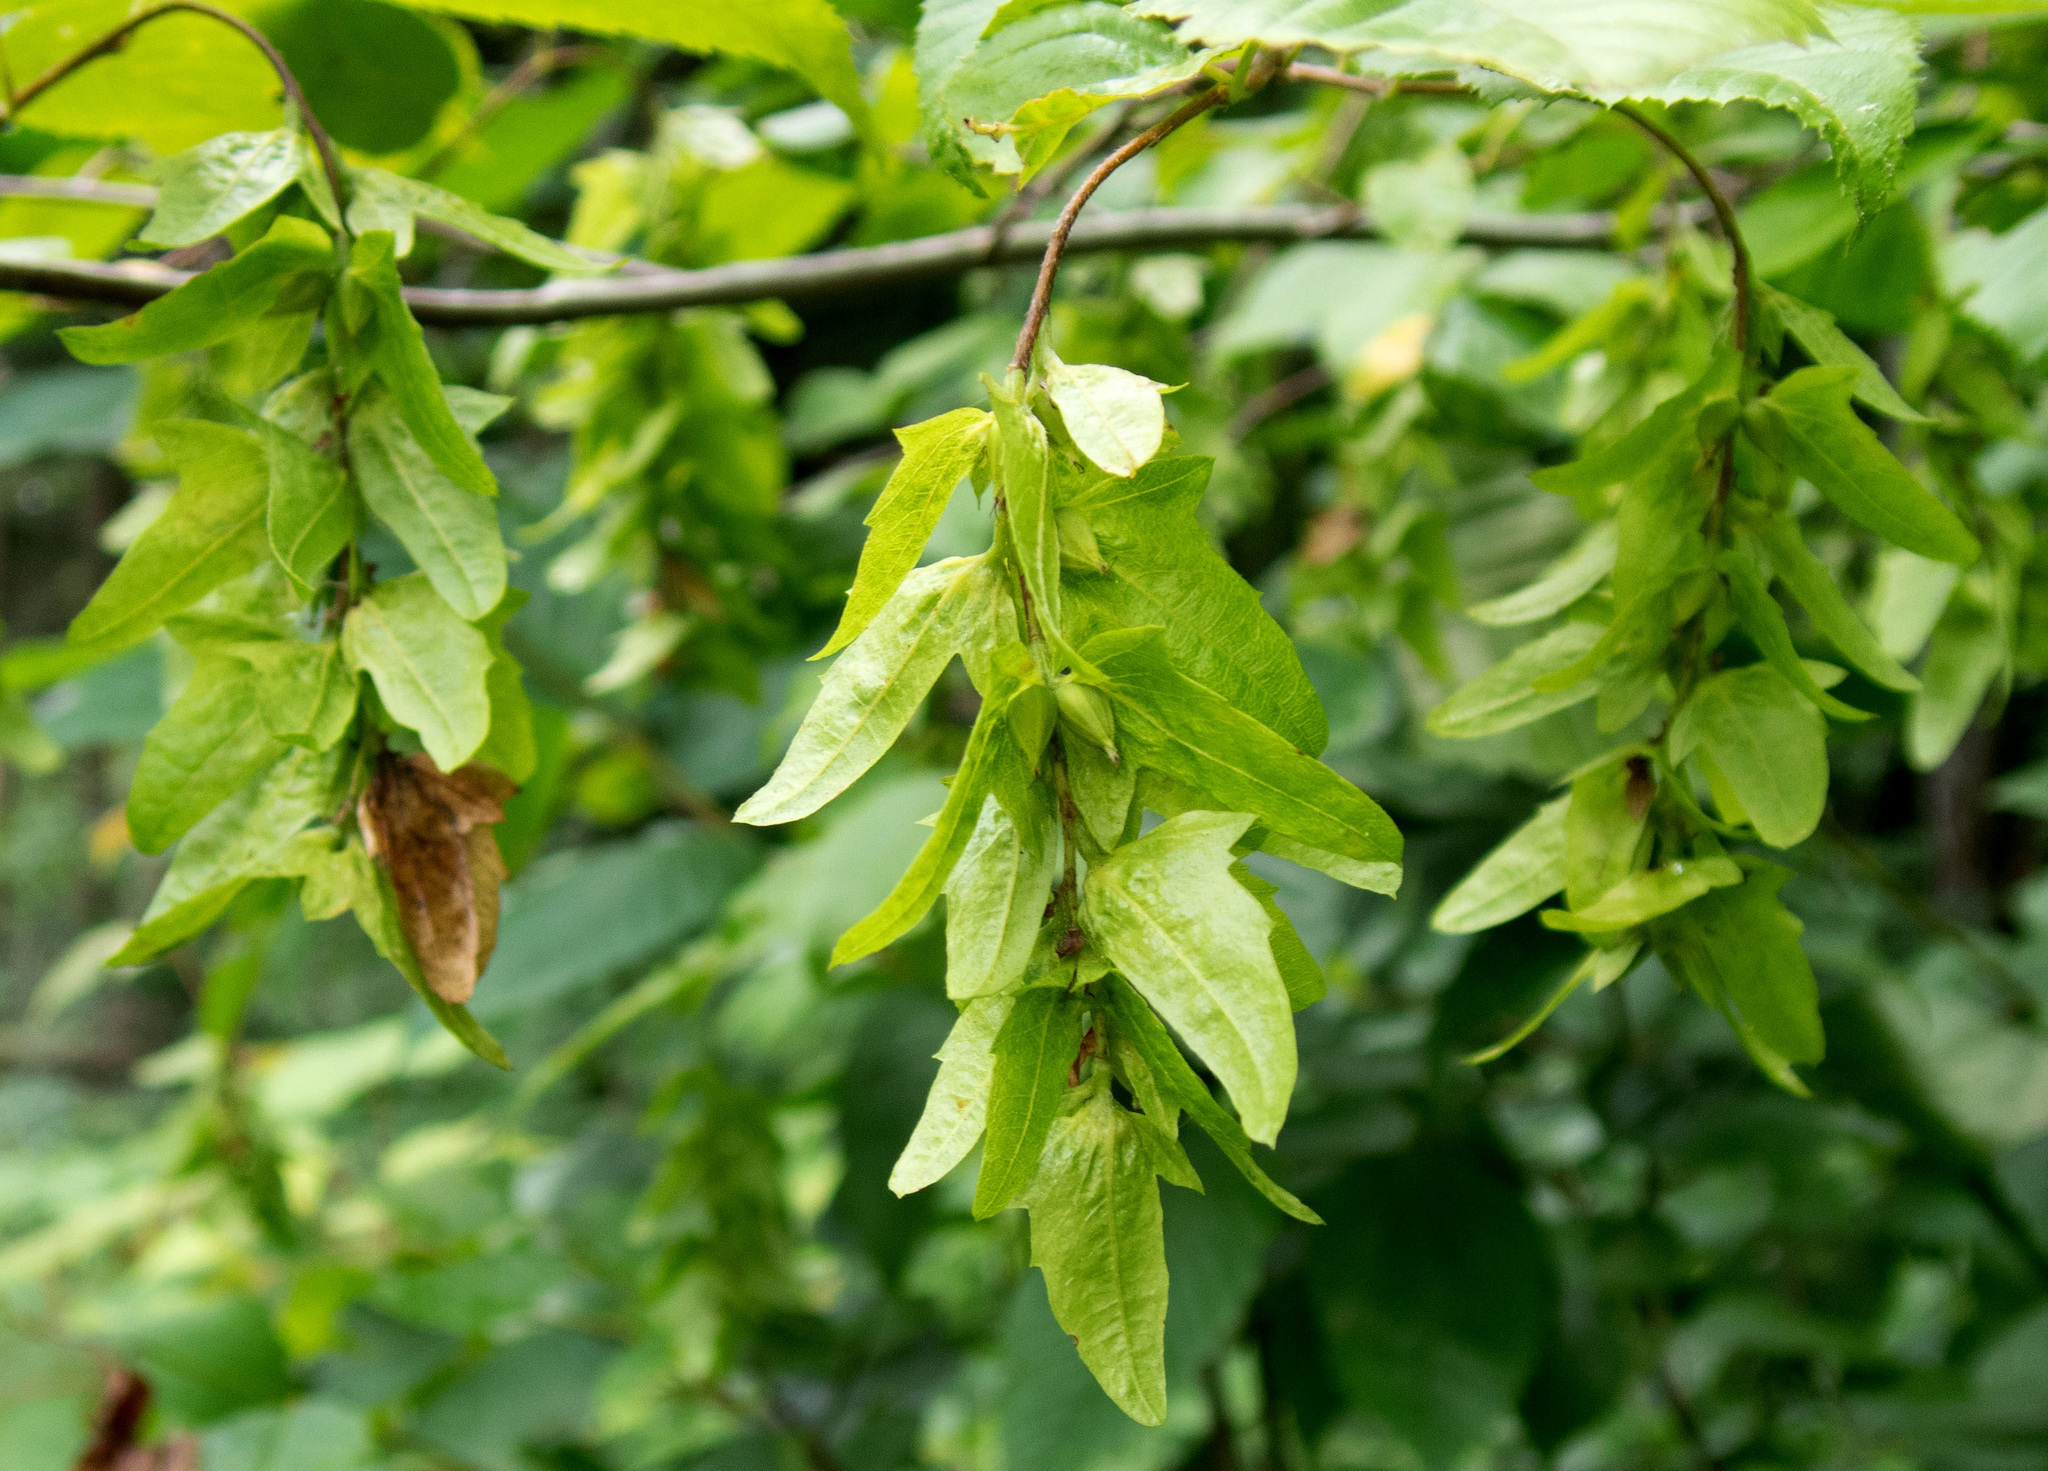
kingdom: Plantae
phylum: Tracheophyta
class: Magnoliopsida
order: Fagales
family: Betulaceae
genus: Carpinus
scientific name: Carpinus caroliniana
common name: American hornbeam
